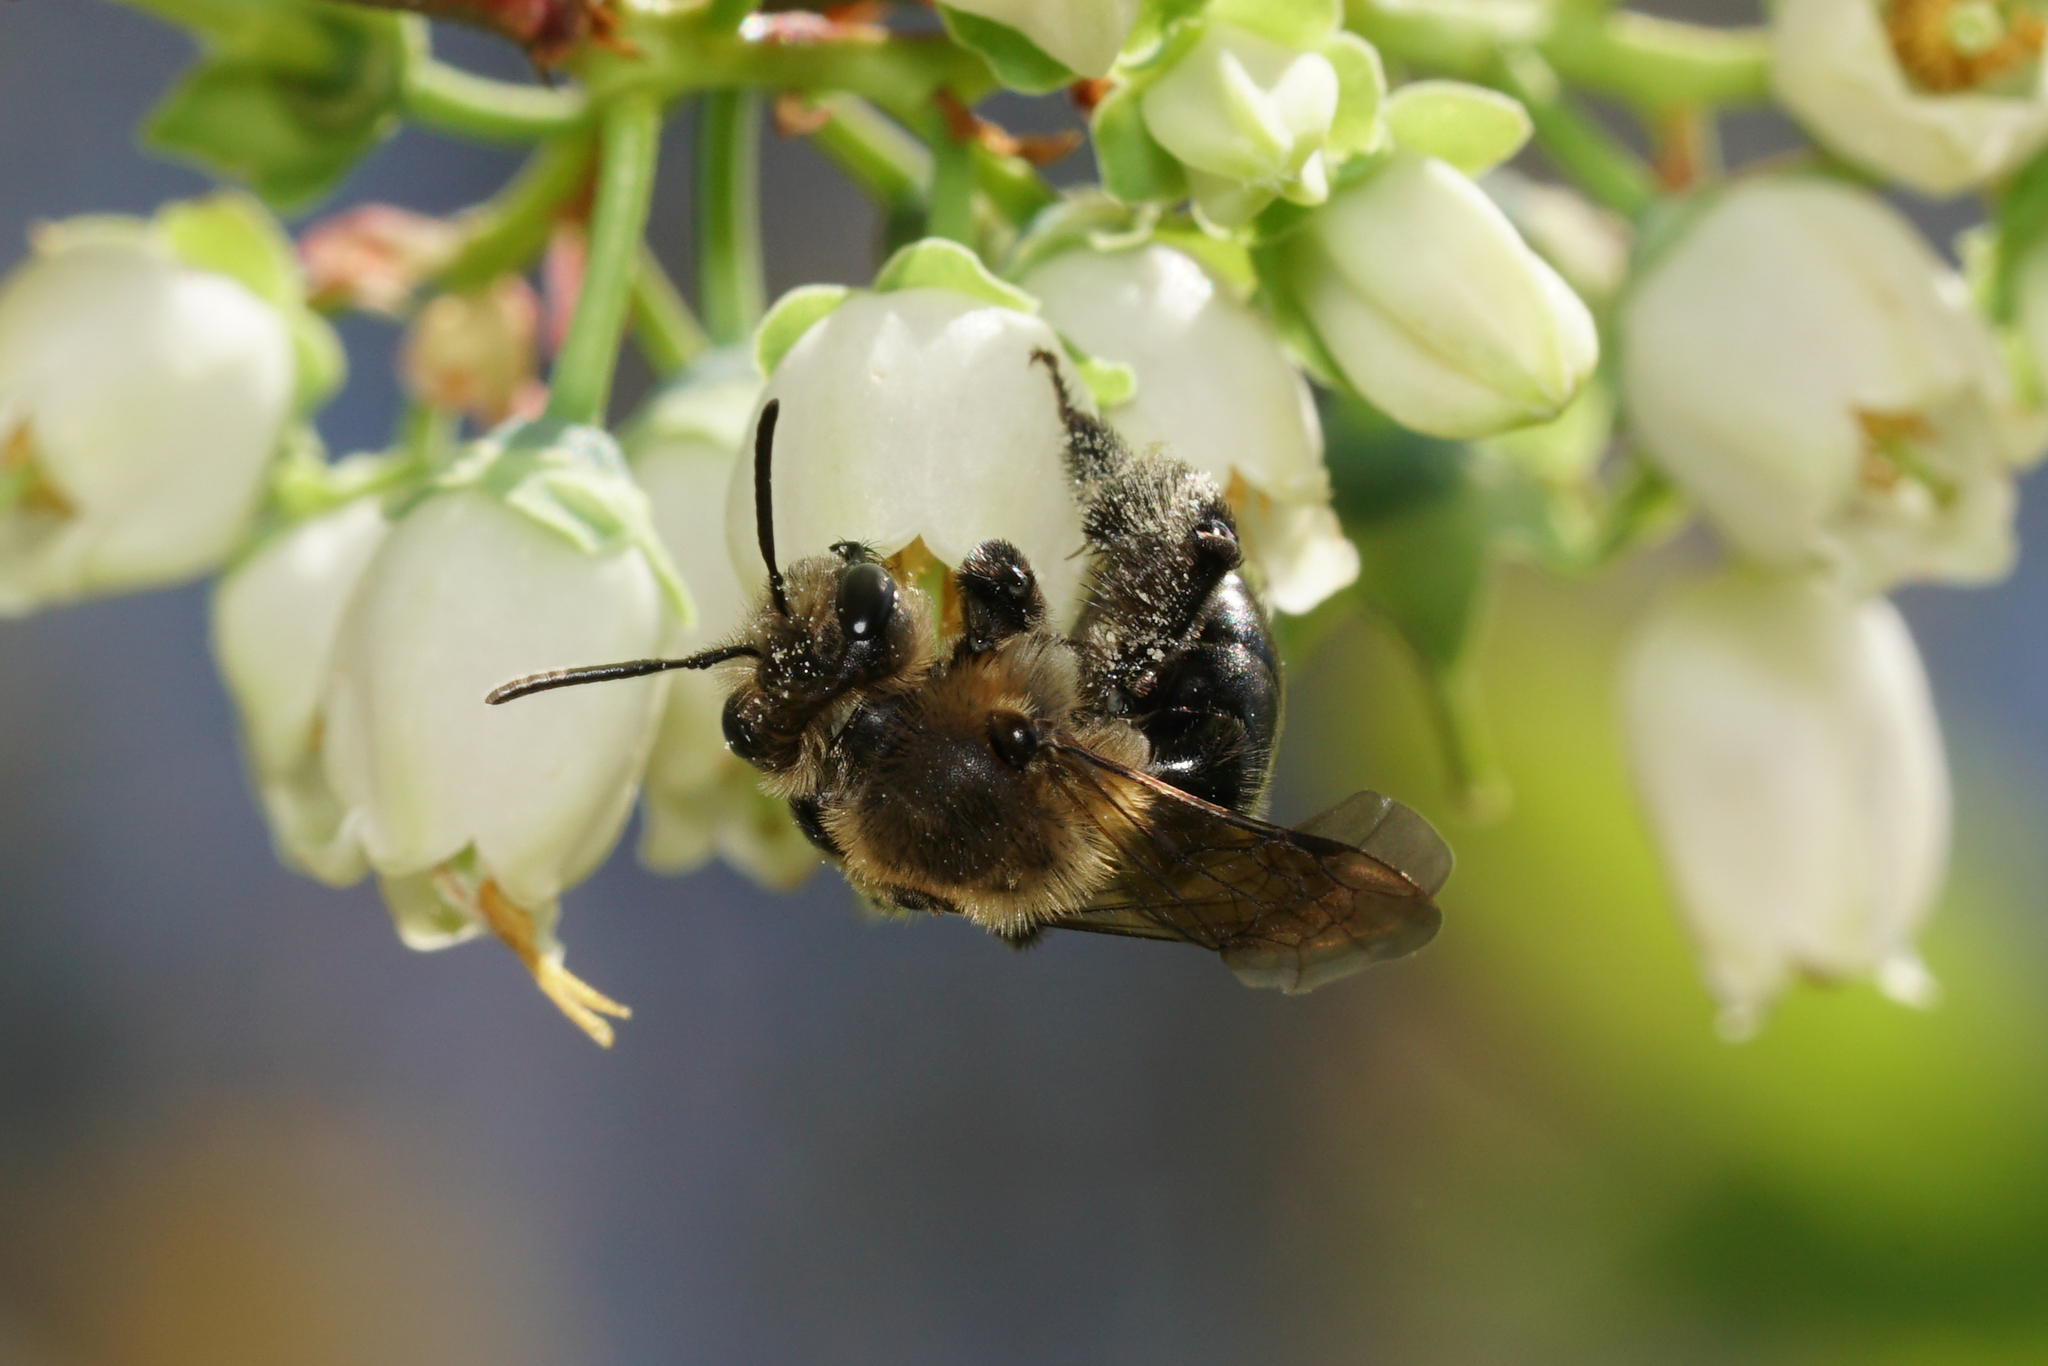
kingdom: Animalia
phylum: Arthropoda
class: Insecta
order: Hymenoptera
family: Andrenidae
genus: Andrena
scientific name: Andrena vicina
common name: Neighborly mining bee
